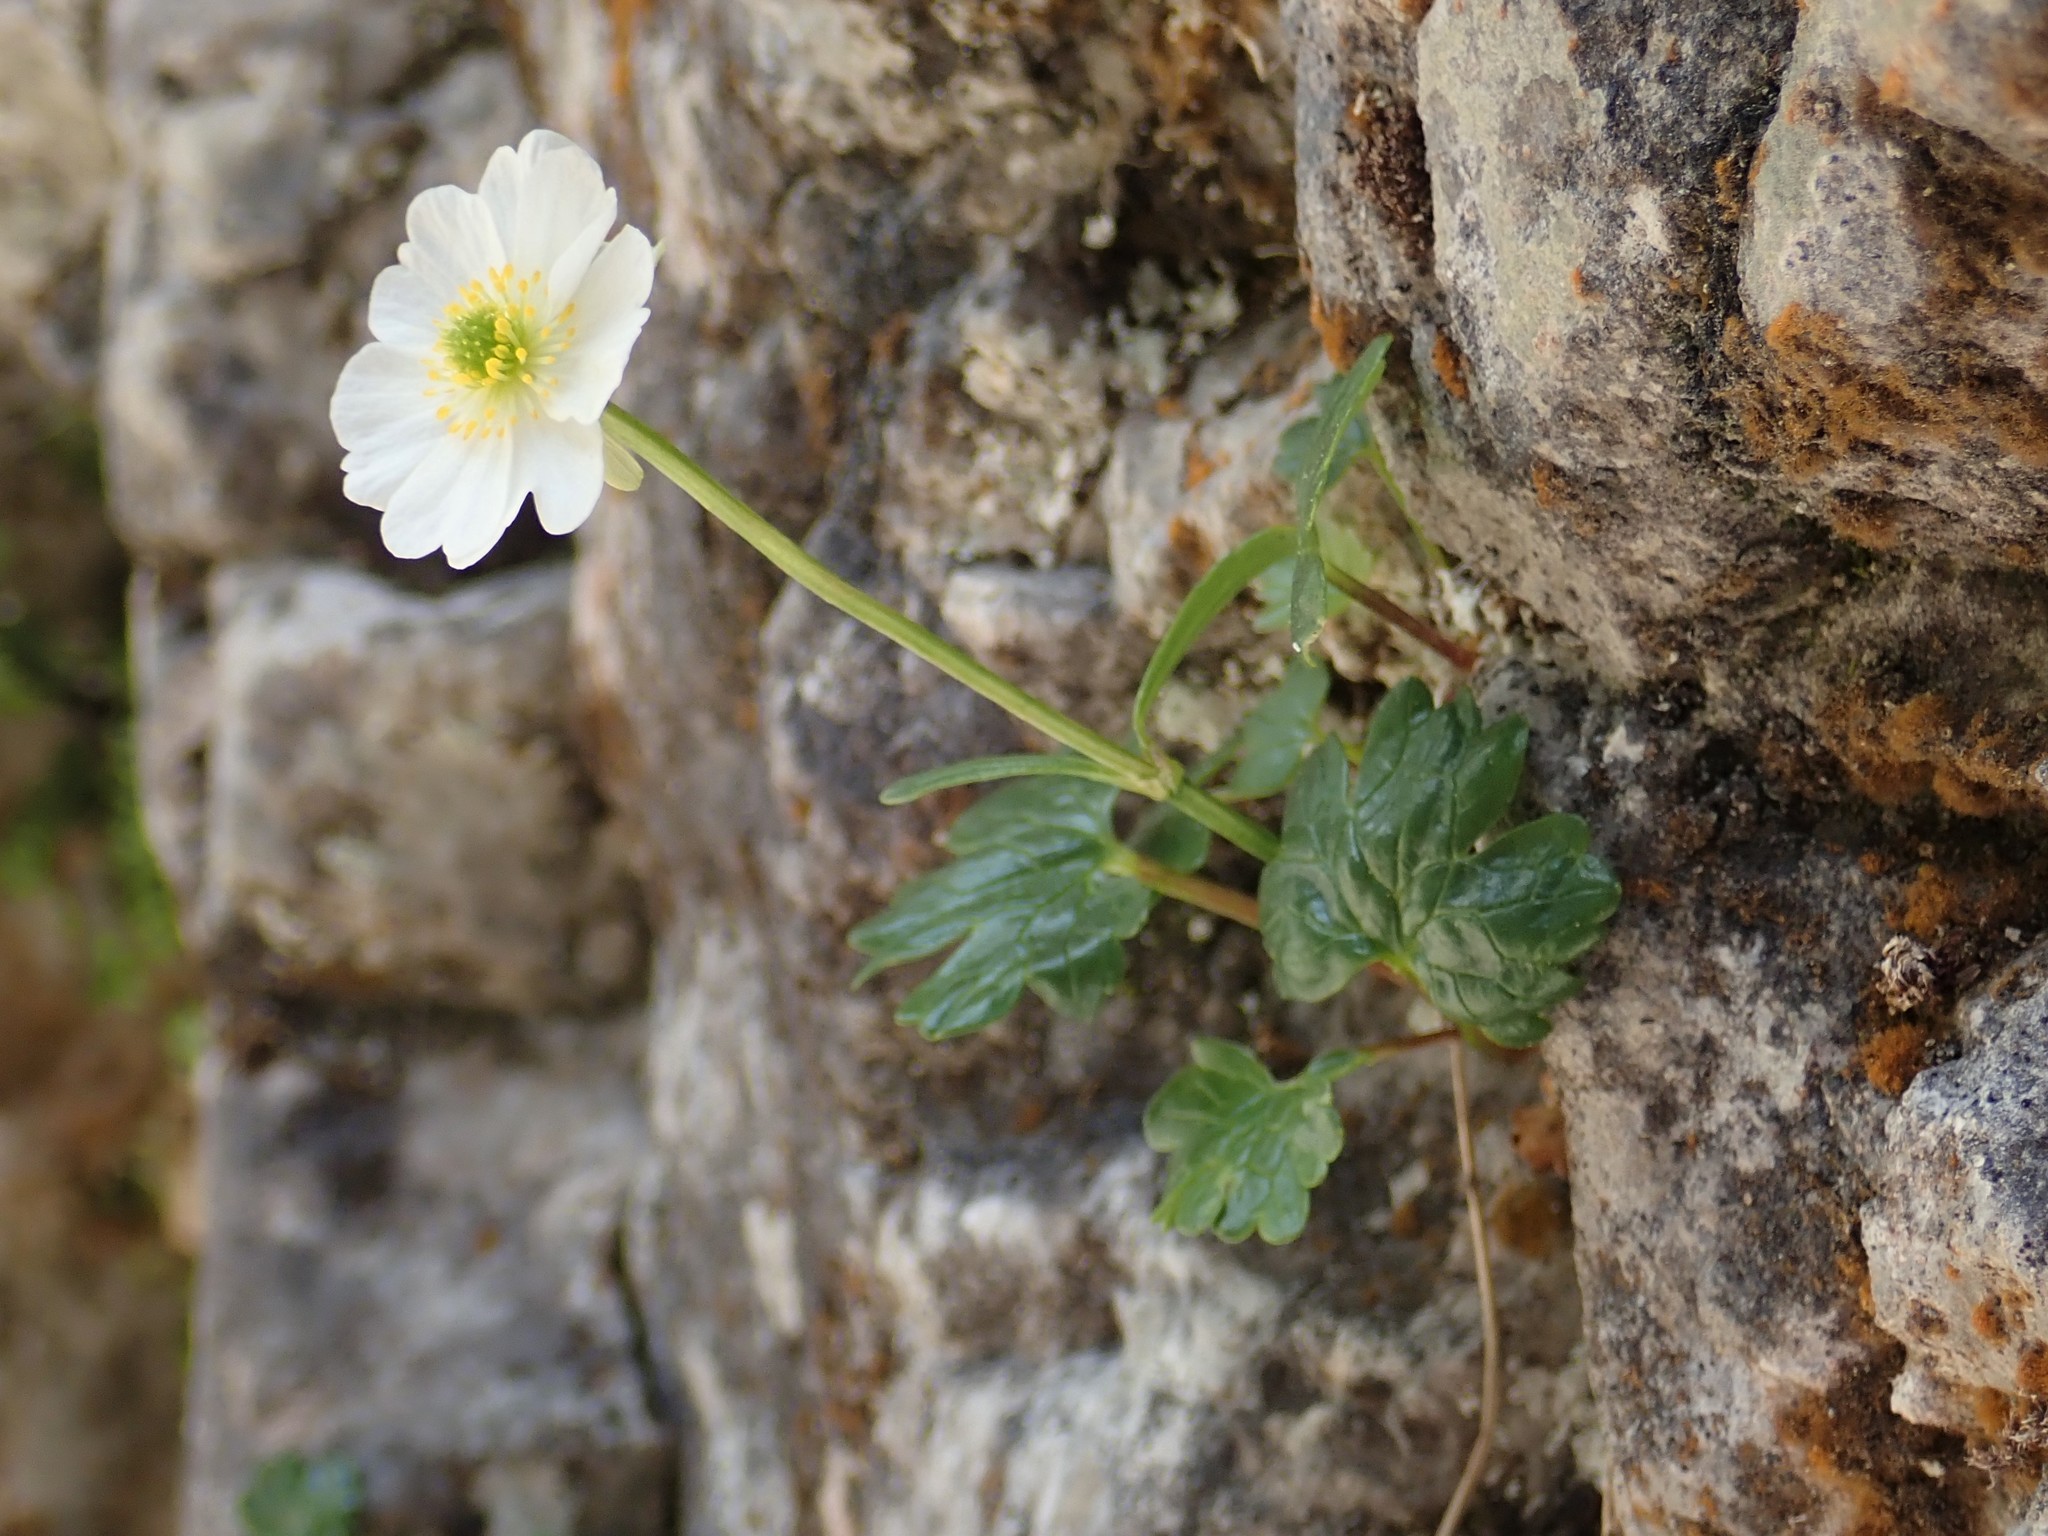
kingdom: Plantae
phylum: Tracheophyta
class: Magnoliopsida
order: Ranunculales
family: Ranunculaceae
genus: Ranunculus
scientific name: Ranunculus alpestris
